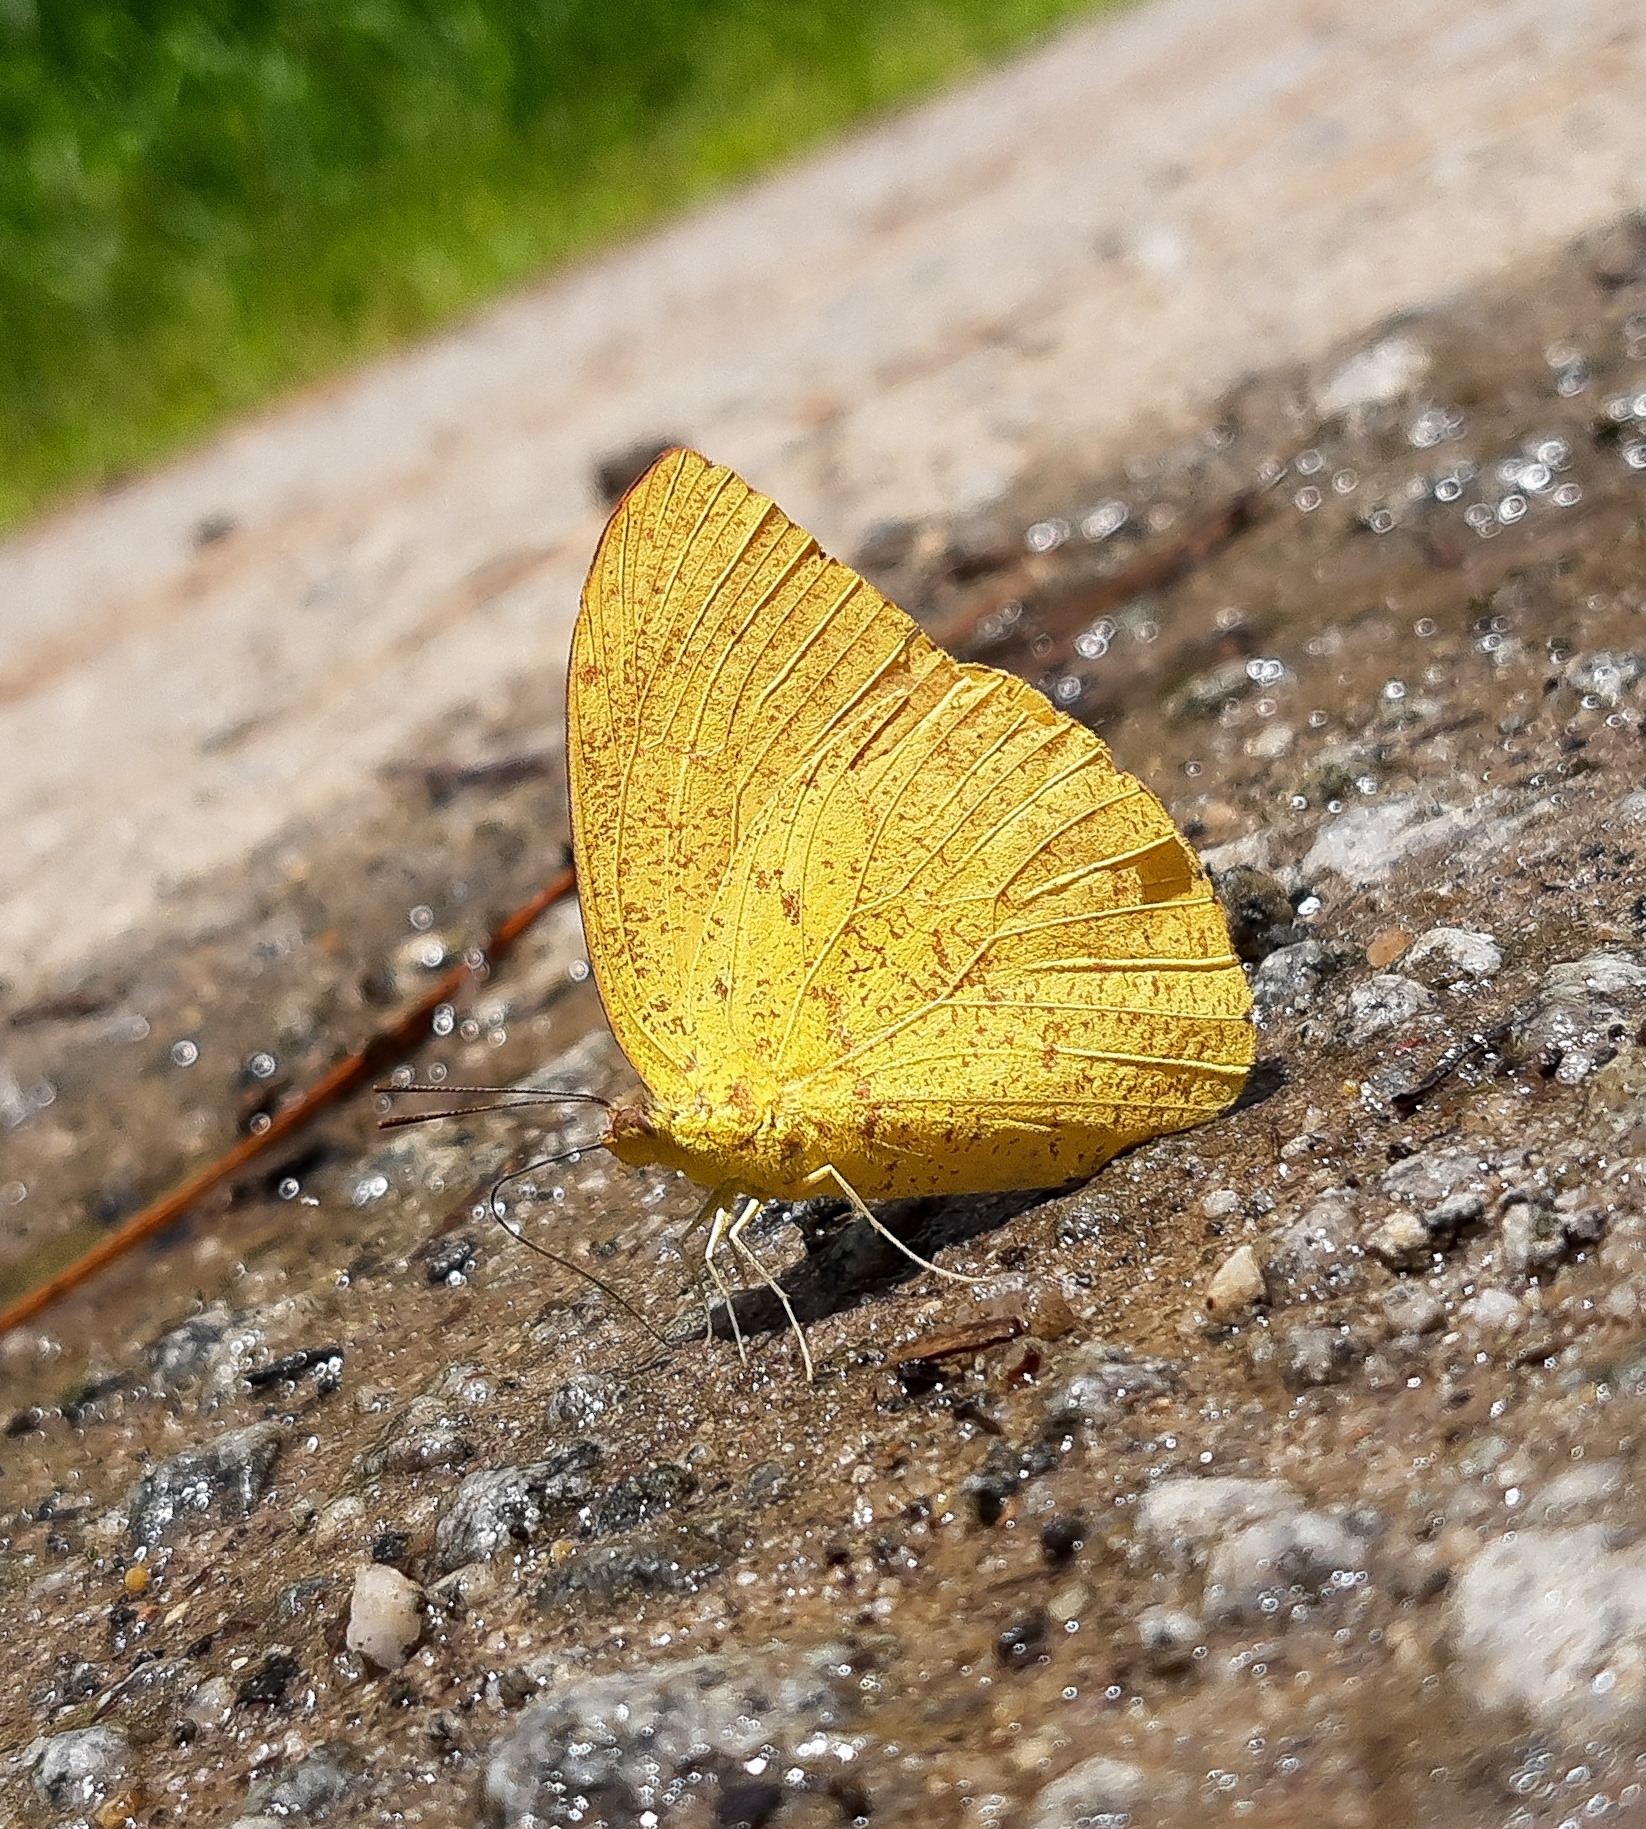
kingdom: Animalia
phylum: Arthropoda
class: Insecta
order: Lepidoptera
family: Pieridae
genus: Phoebis
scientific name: Phoebis argante
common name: Apricot sulphur
